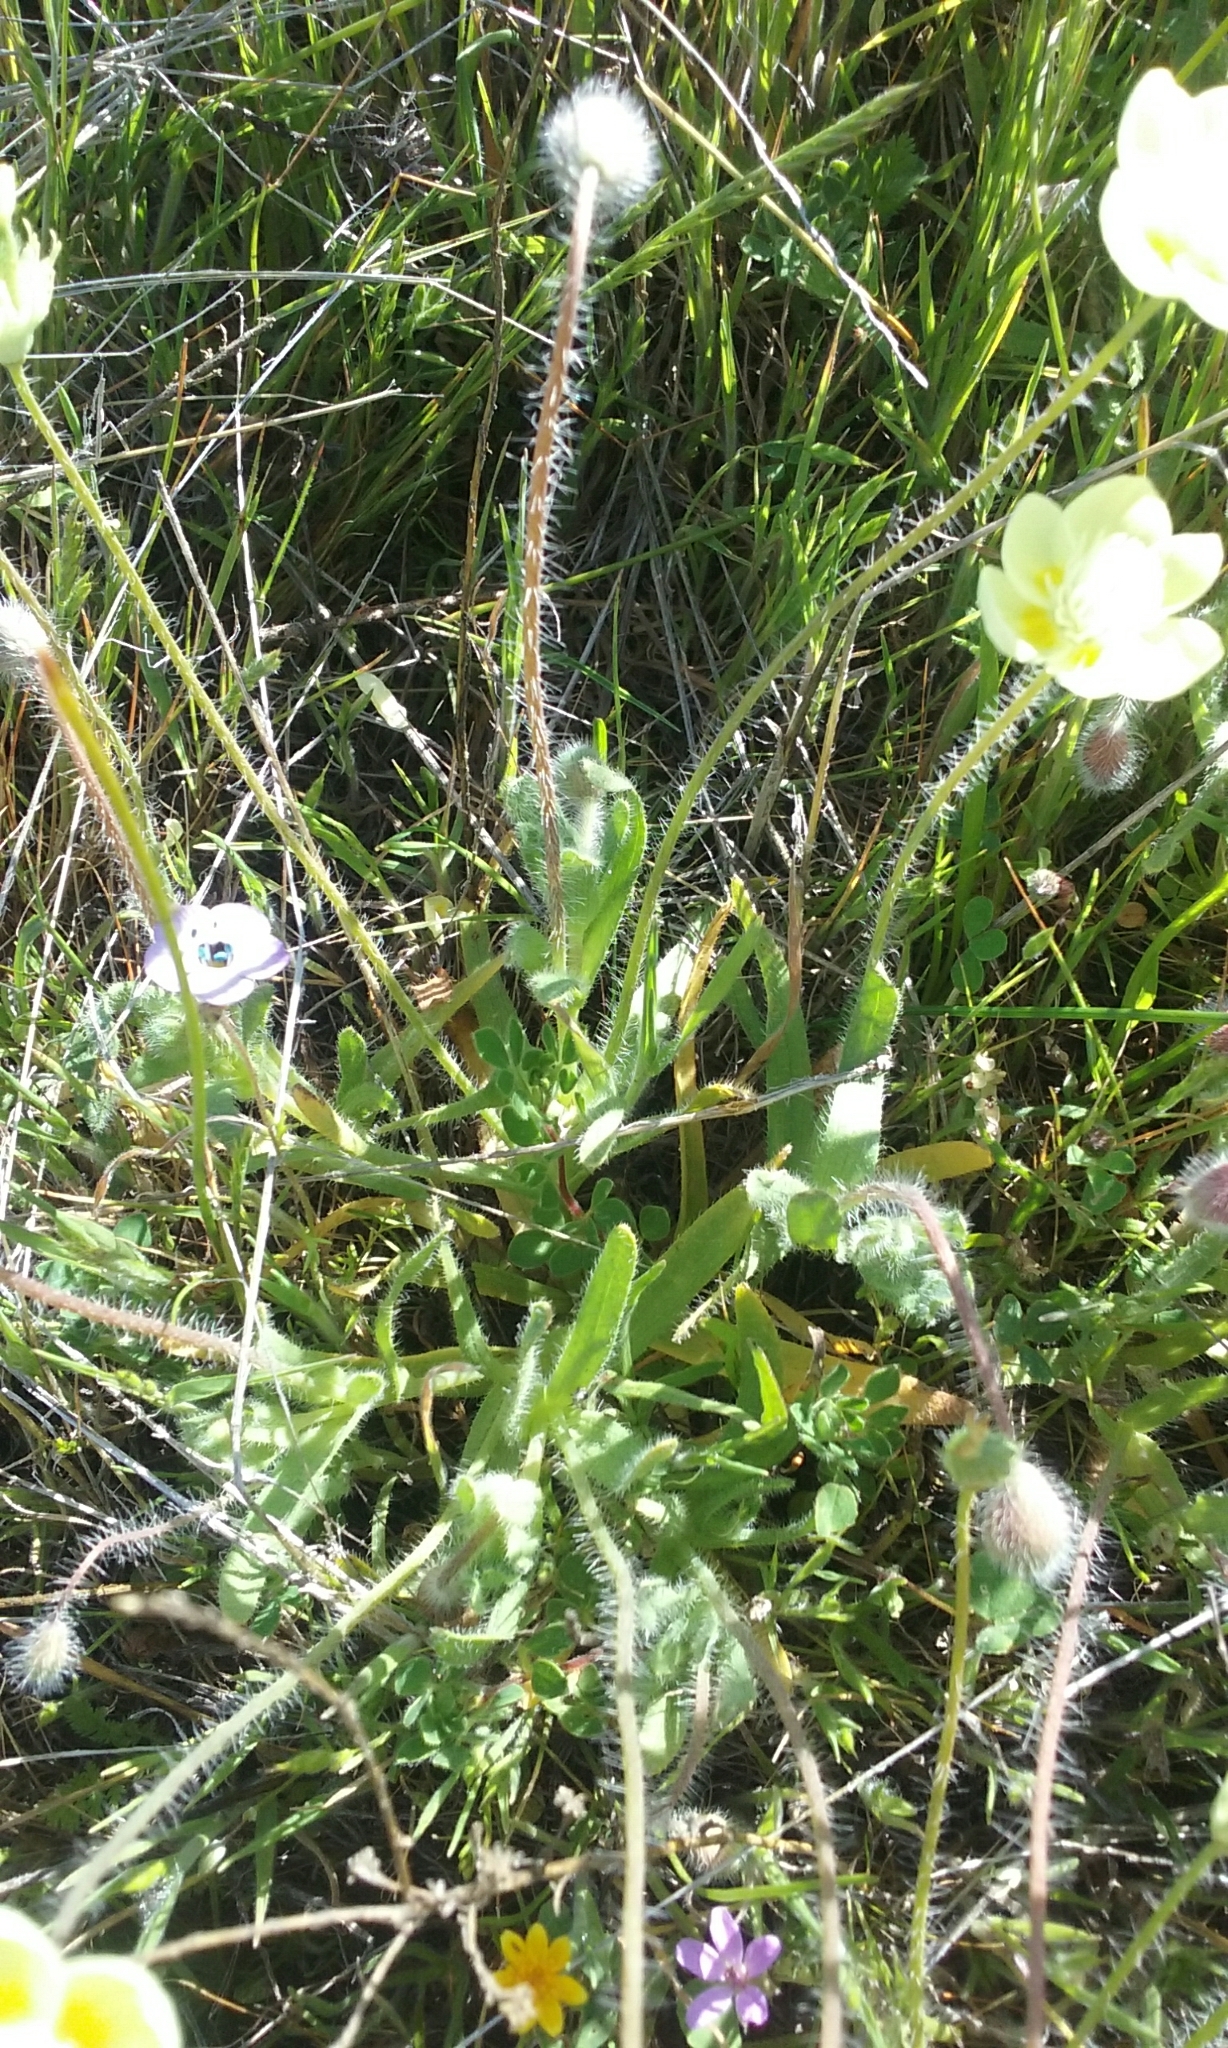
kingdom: Plantae
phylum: Tracheophyta
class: Magnoliopsida
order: Ranunculales
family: Papaveraceae
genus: Platystemon
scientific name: Platystemon californicus
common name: Cream-cups
